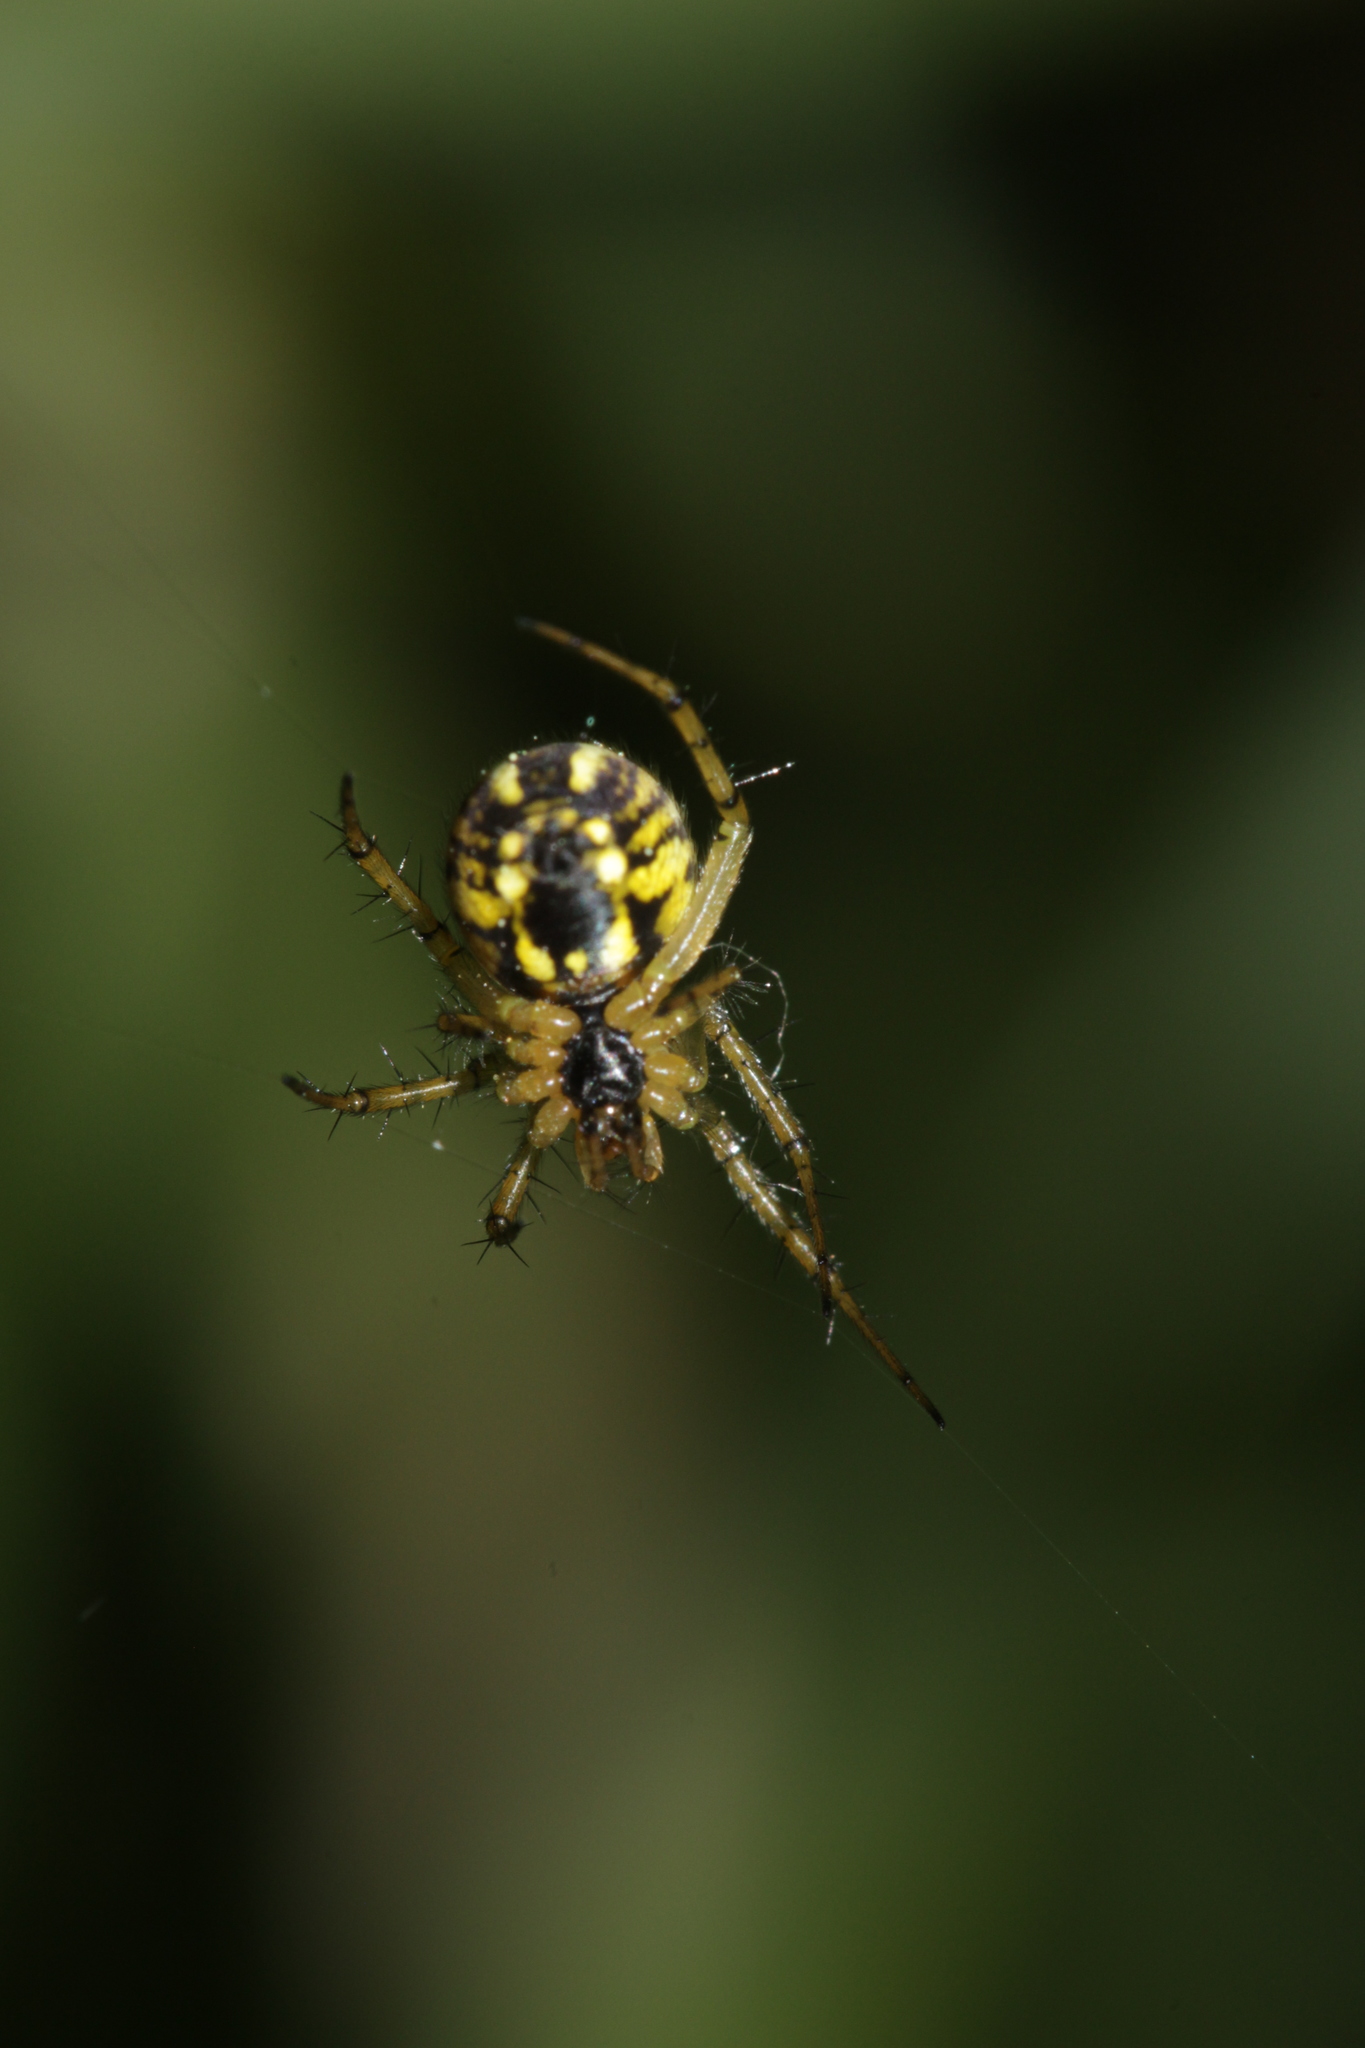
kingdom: Animalia
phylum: Arthropoda
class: Arachnida
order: Araneae
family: Araneidae
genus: Mangora
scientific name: Mangora acalypha
